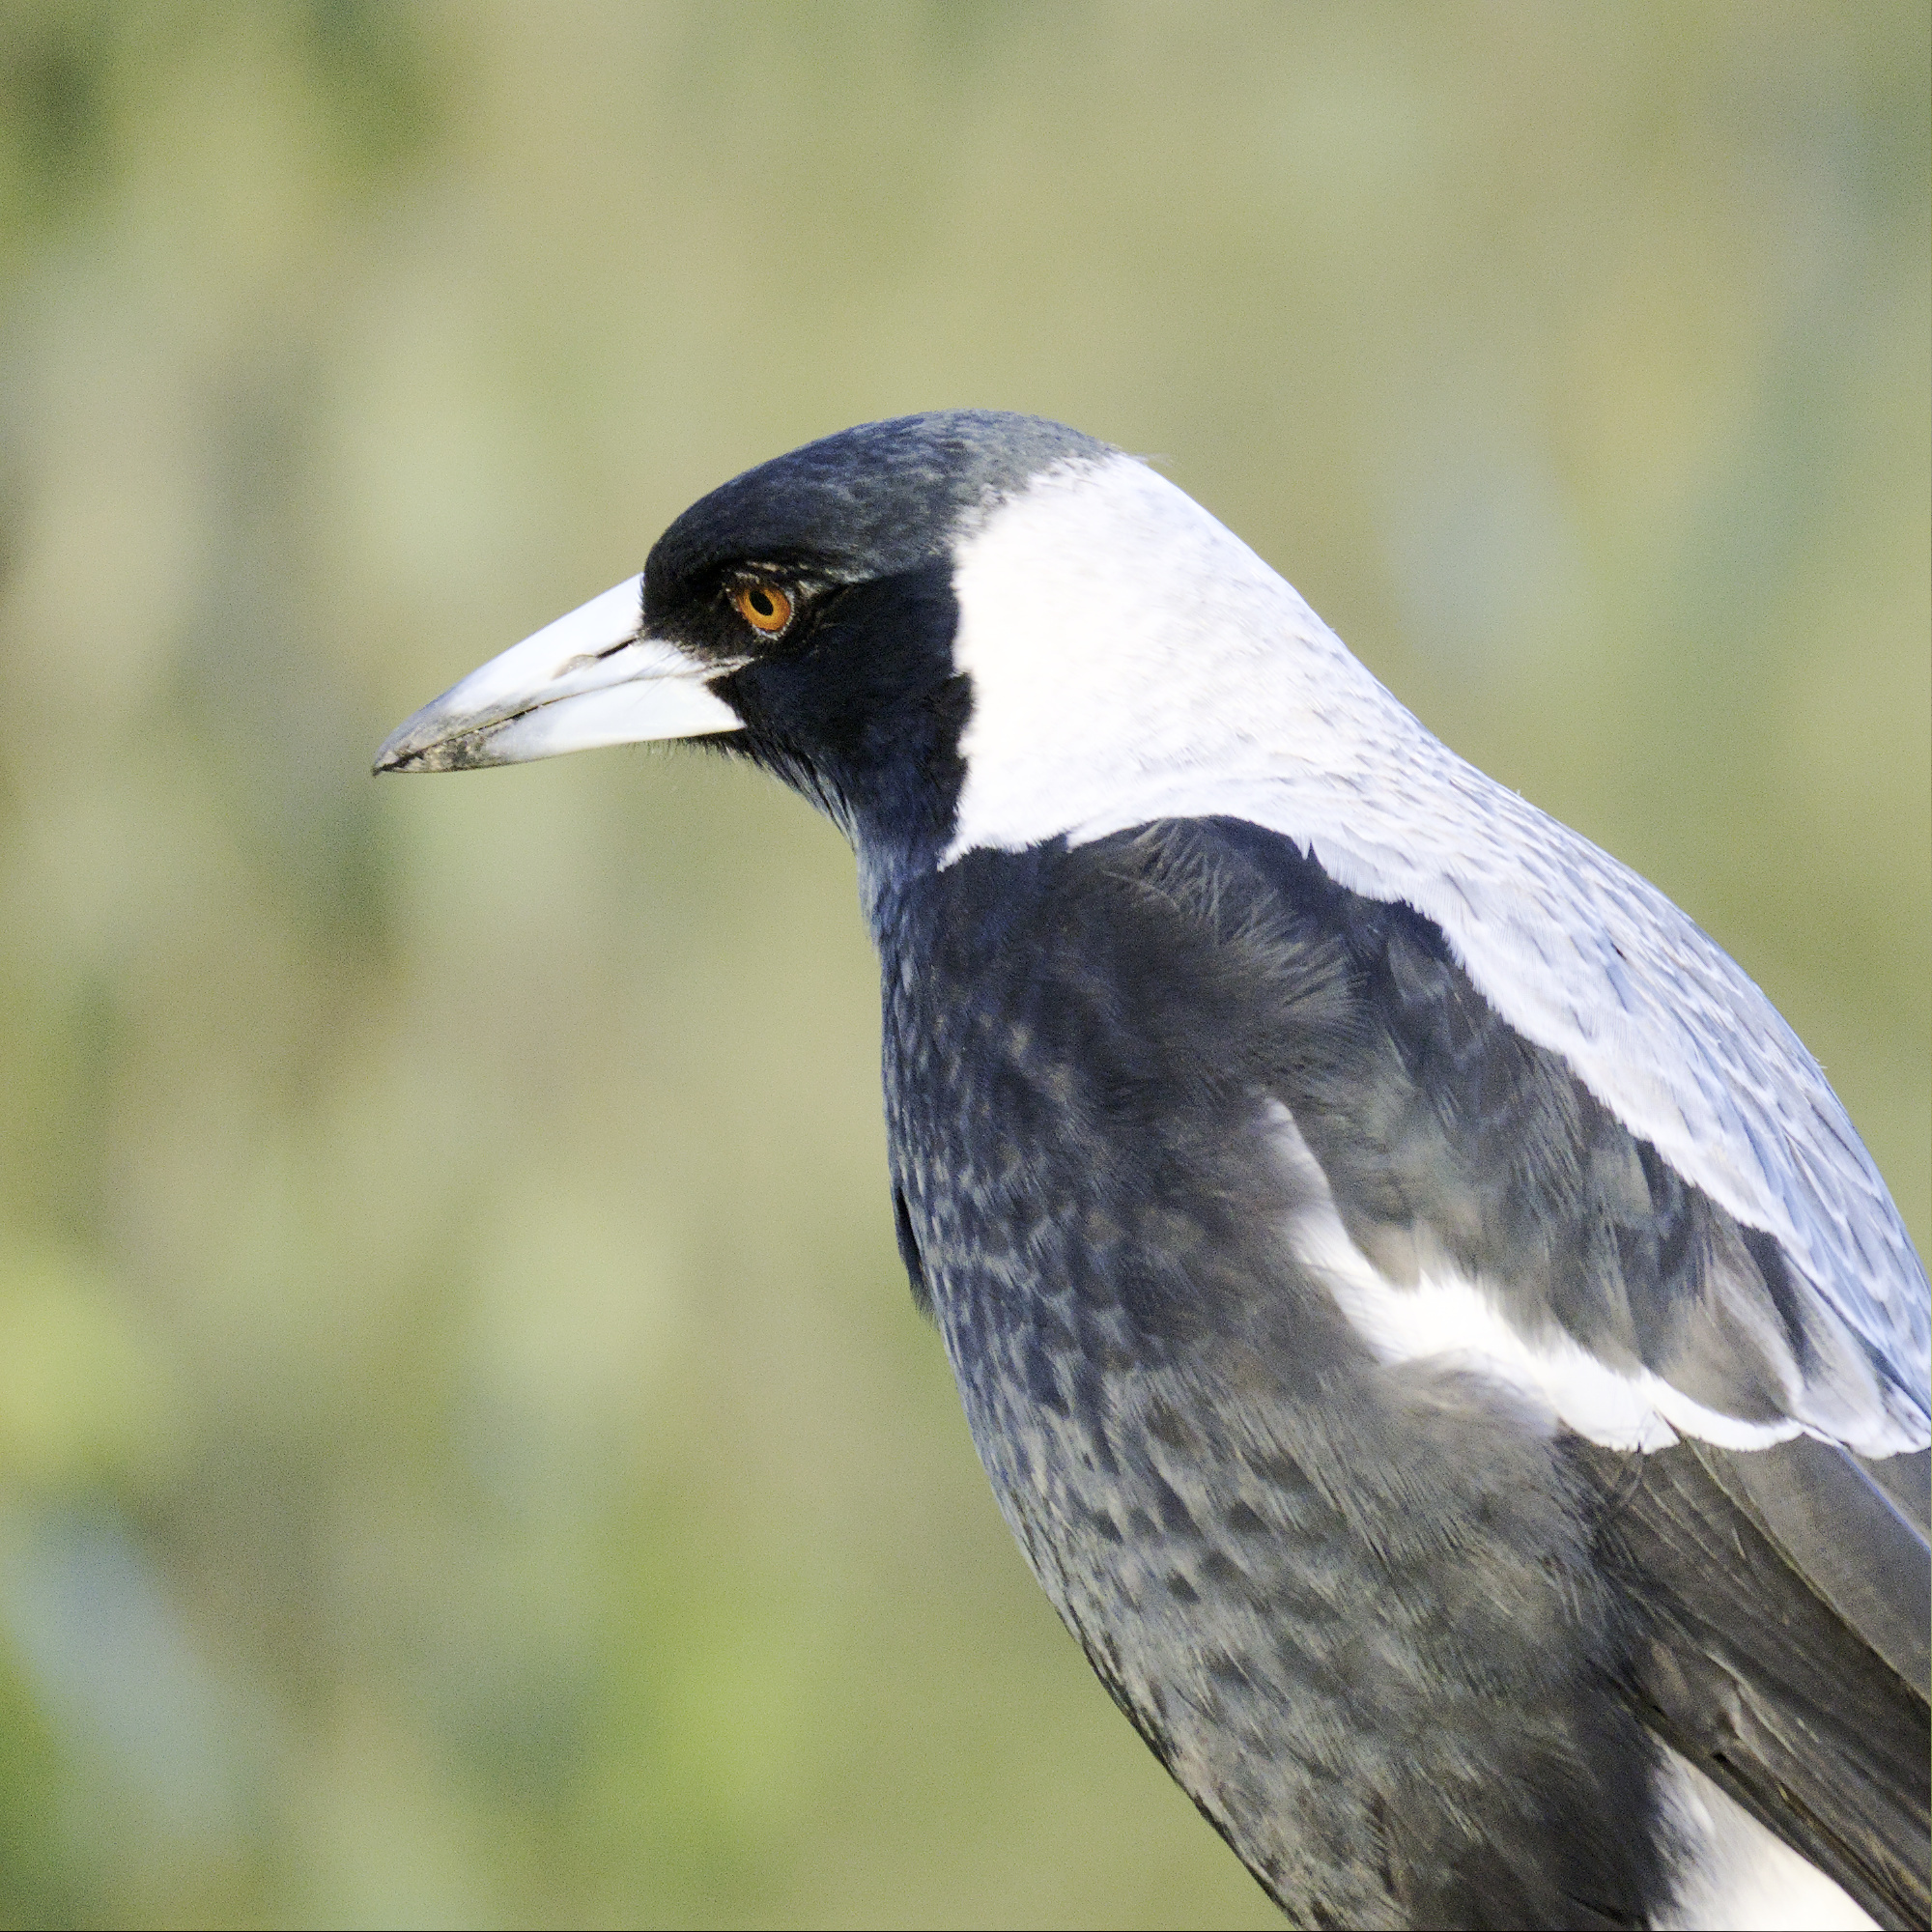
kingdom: Animalia
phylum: Chordata
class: Aves
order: Passeriformes
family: Cracticidae
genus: Gymnorhina
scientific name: Gymnorhina tibicen
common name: Australian magpie
